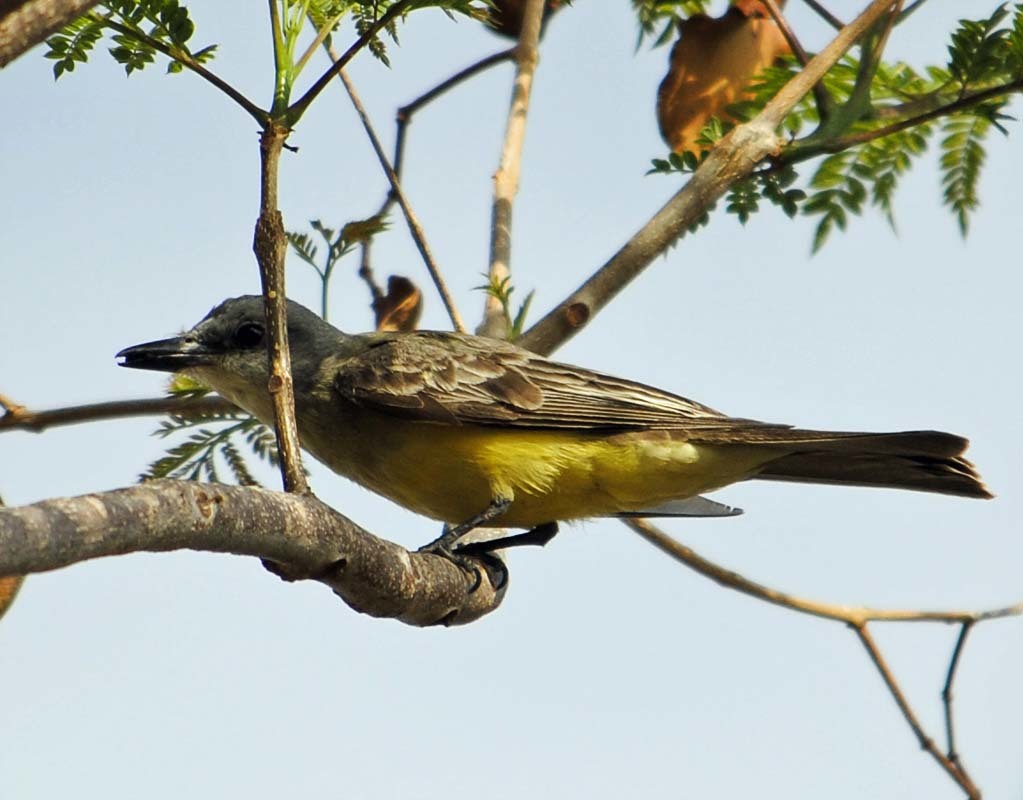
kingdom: Animalia
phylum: Chordata
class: Aves
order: Passeriformes
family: Tyrannidae
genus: Tyrannus
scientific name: Tyrannus melancholicus
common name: Tropical kingbird
